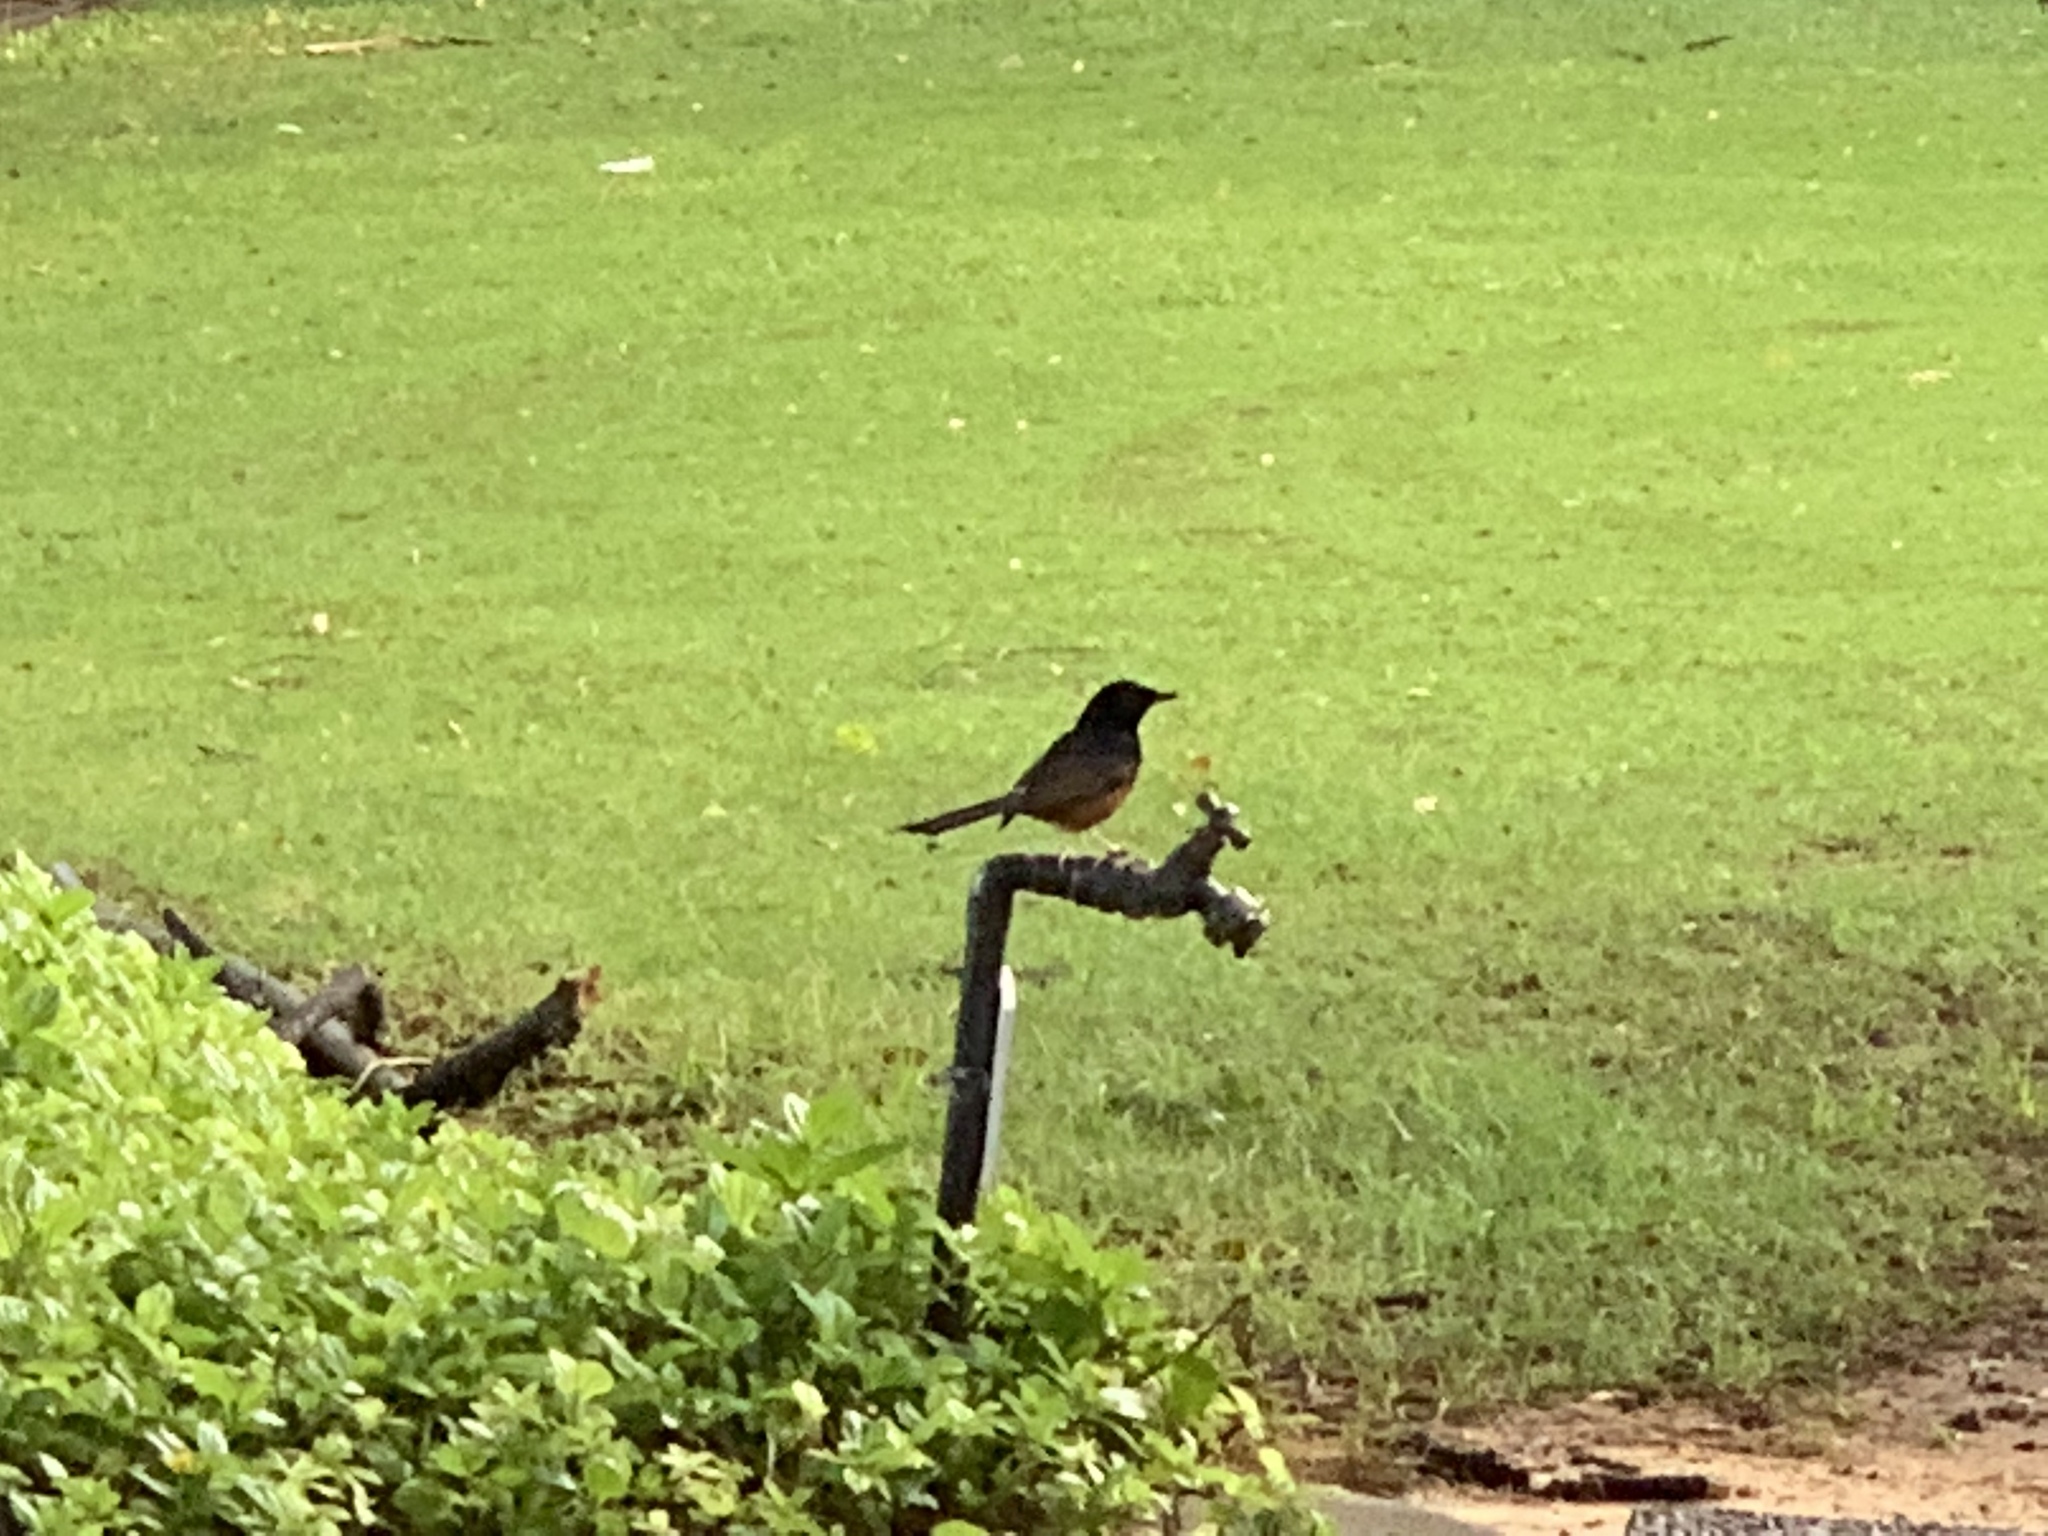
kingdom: Animalia
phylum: Chordata
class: Aves
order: Passeriformes
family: Muscicapidae
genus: Copsychus
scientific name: Copsychus malabaricus
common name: White-rumped shama
